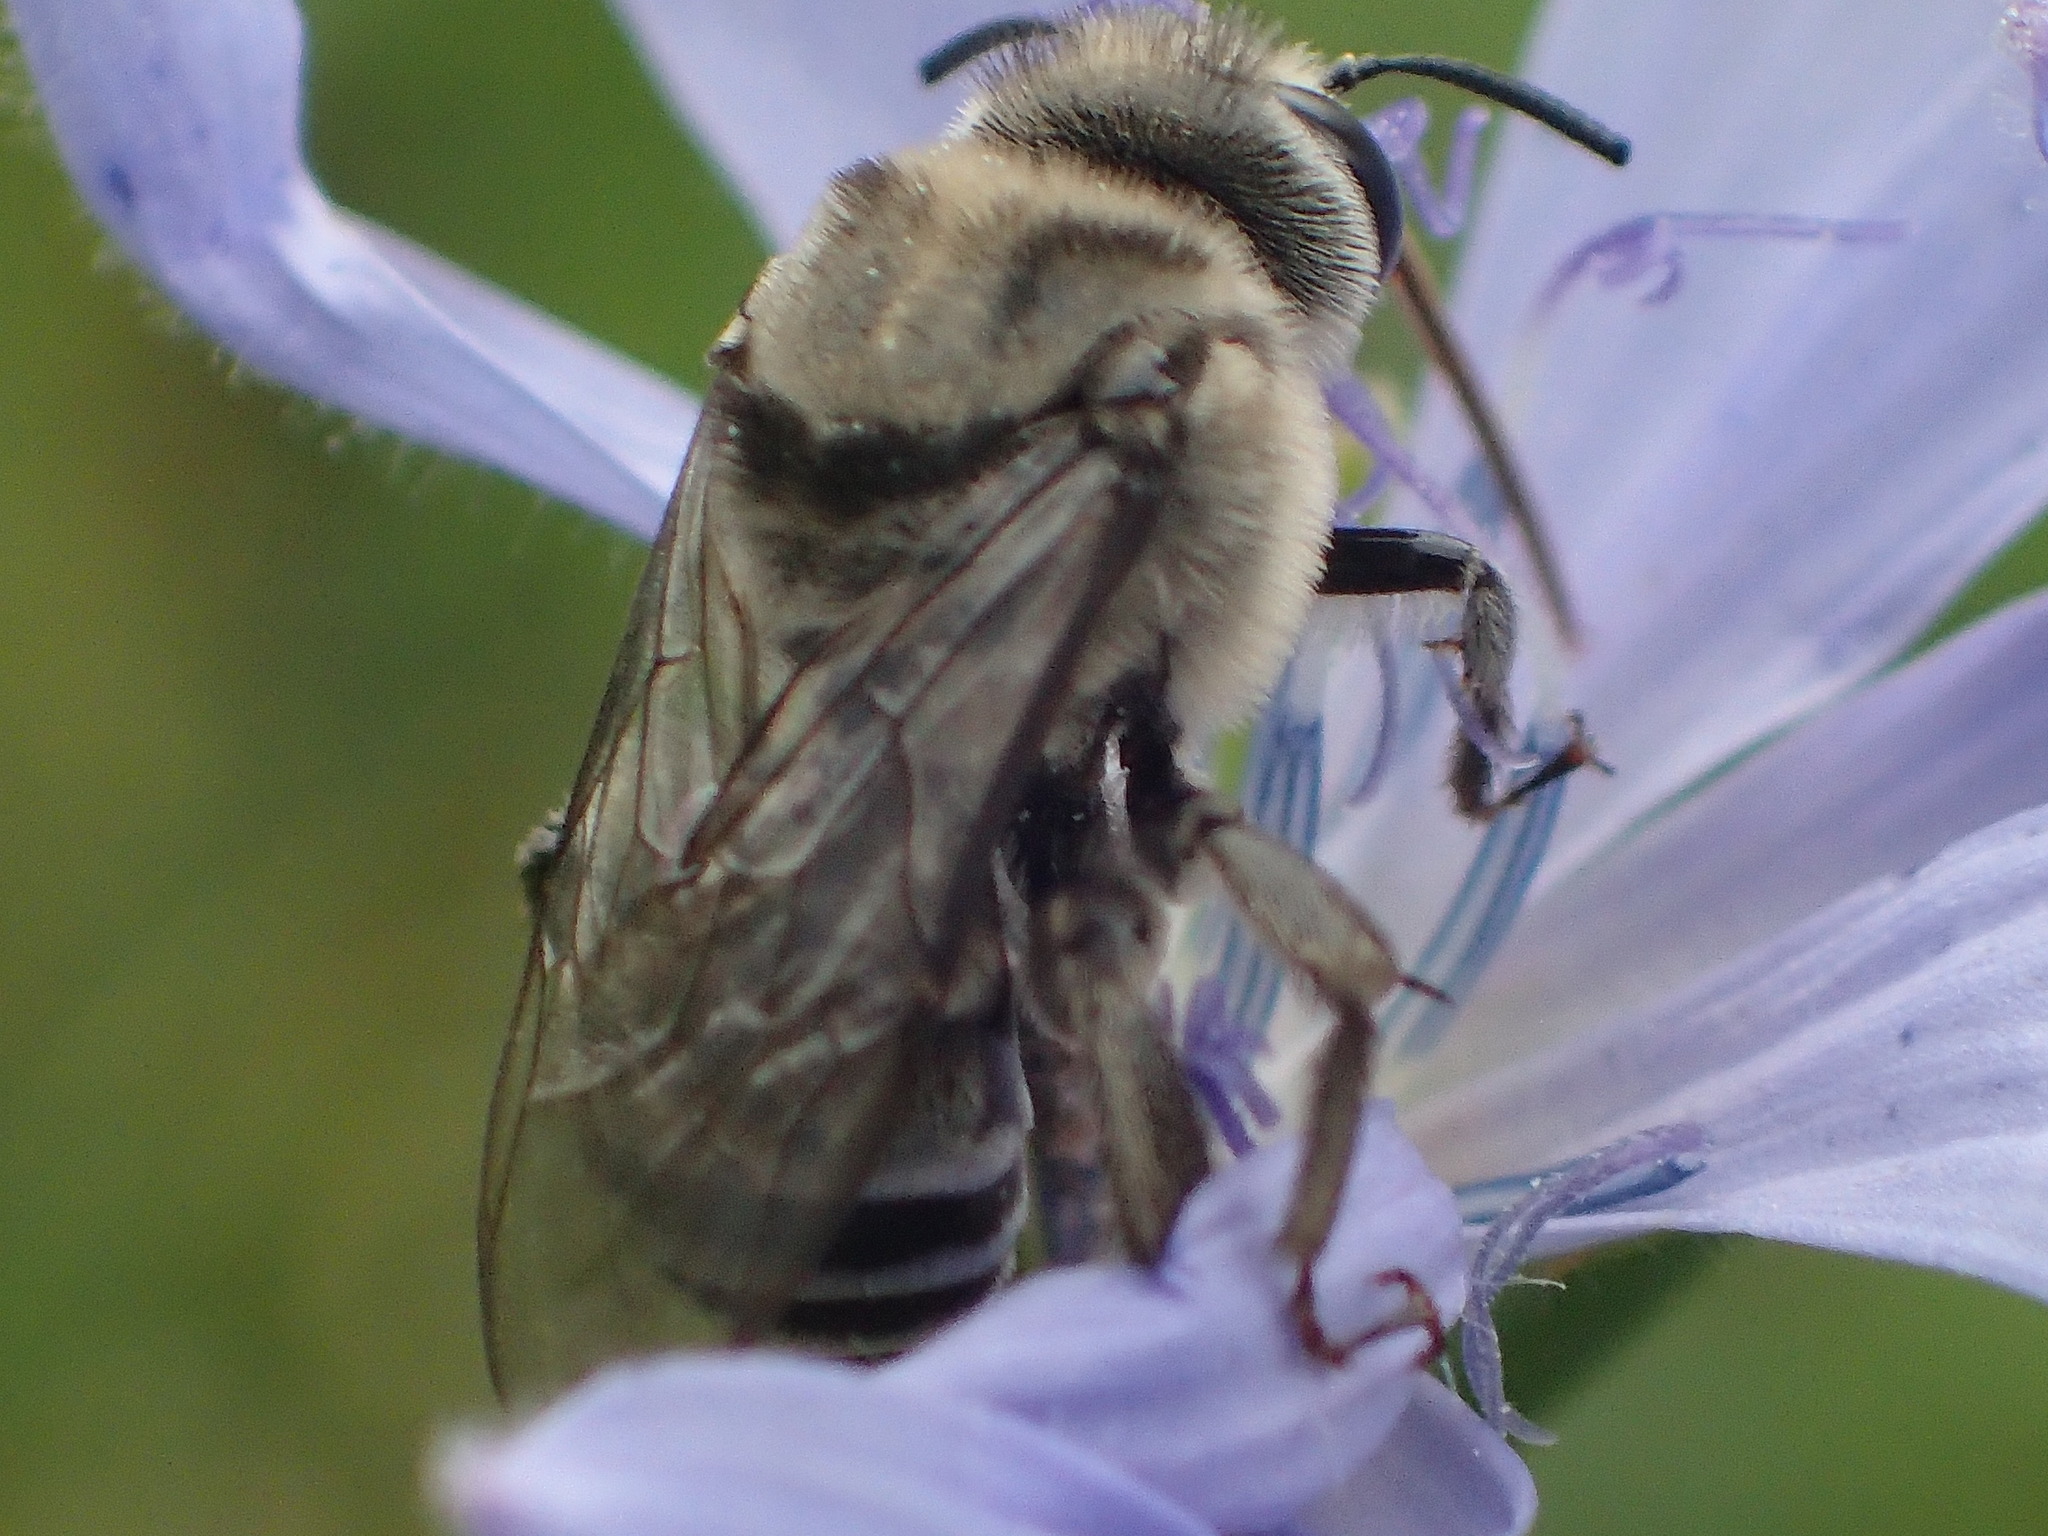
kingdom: Animalia
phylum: Arthropoda
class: Insecta
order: Hymenoptera
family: Apidae
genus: Melitoma
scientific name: Melitoma taurea
